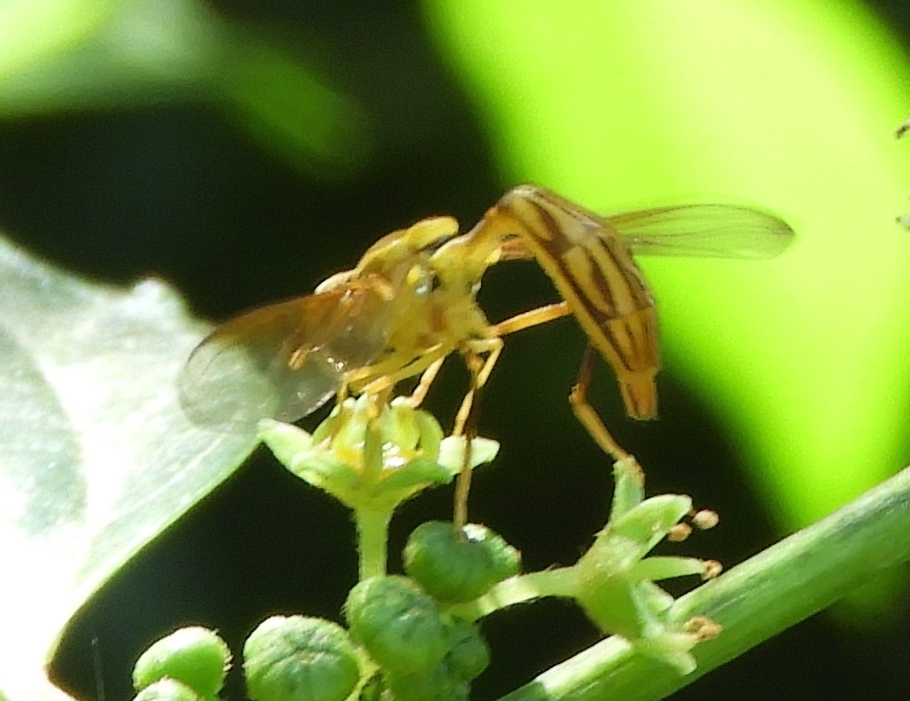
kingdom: Animalia
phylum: Arthropoda
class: Insecta
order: Diptera
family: Syrphidae
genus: Hybobathus
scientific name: Hybobathus
